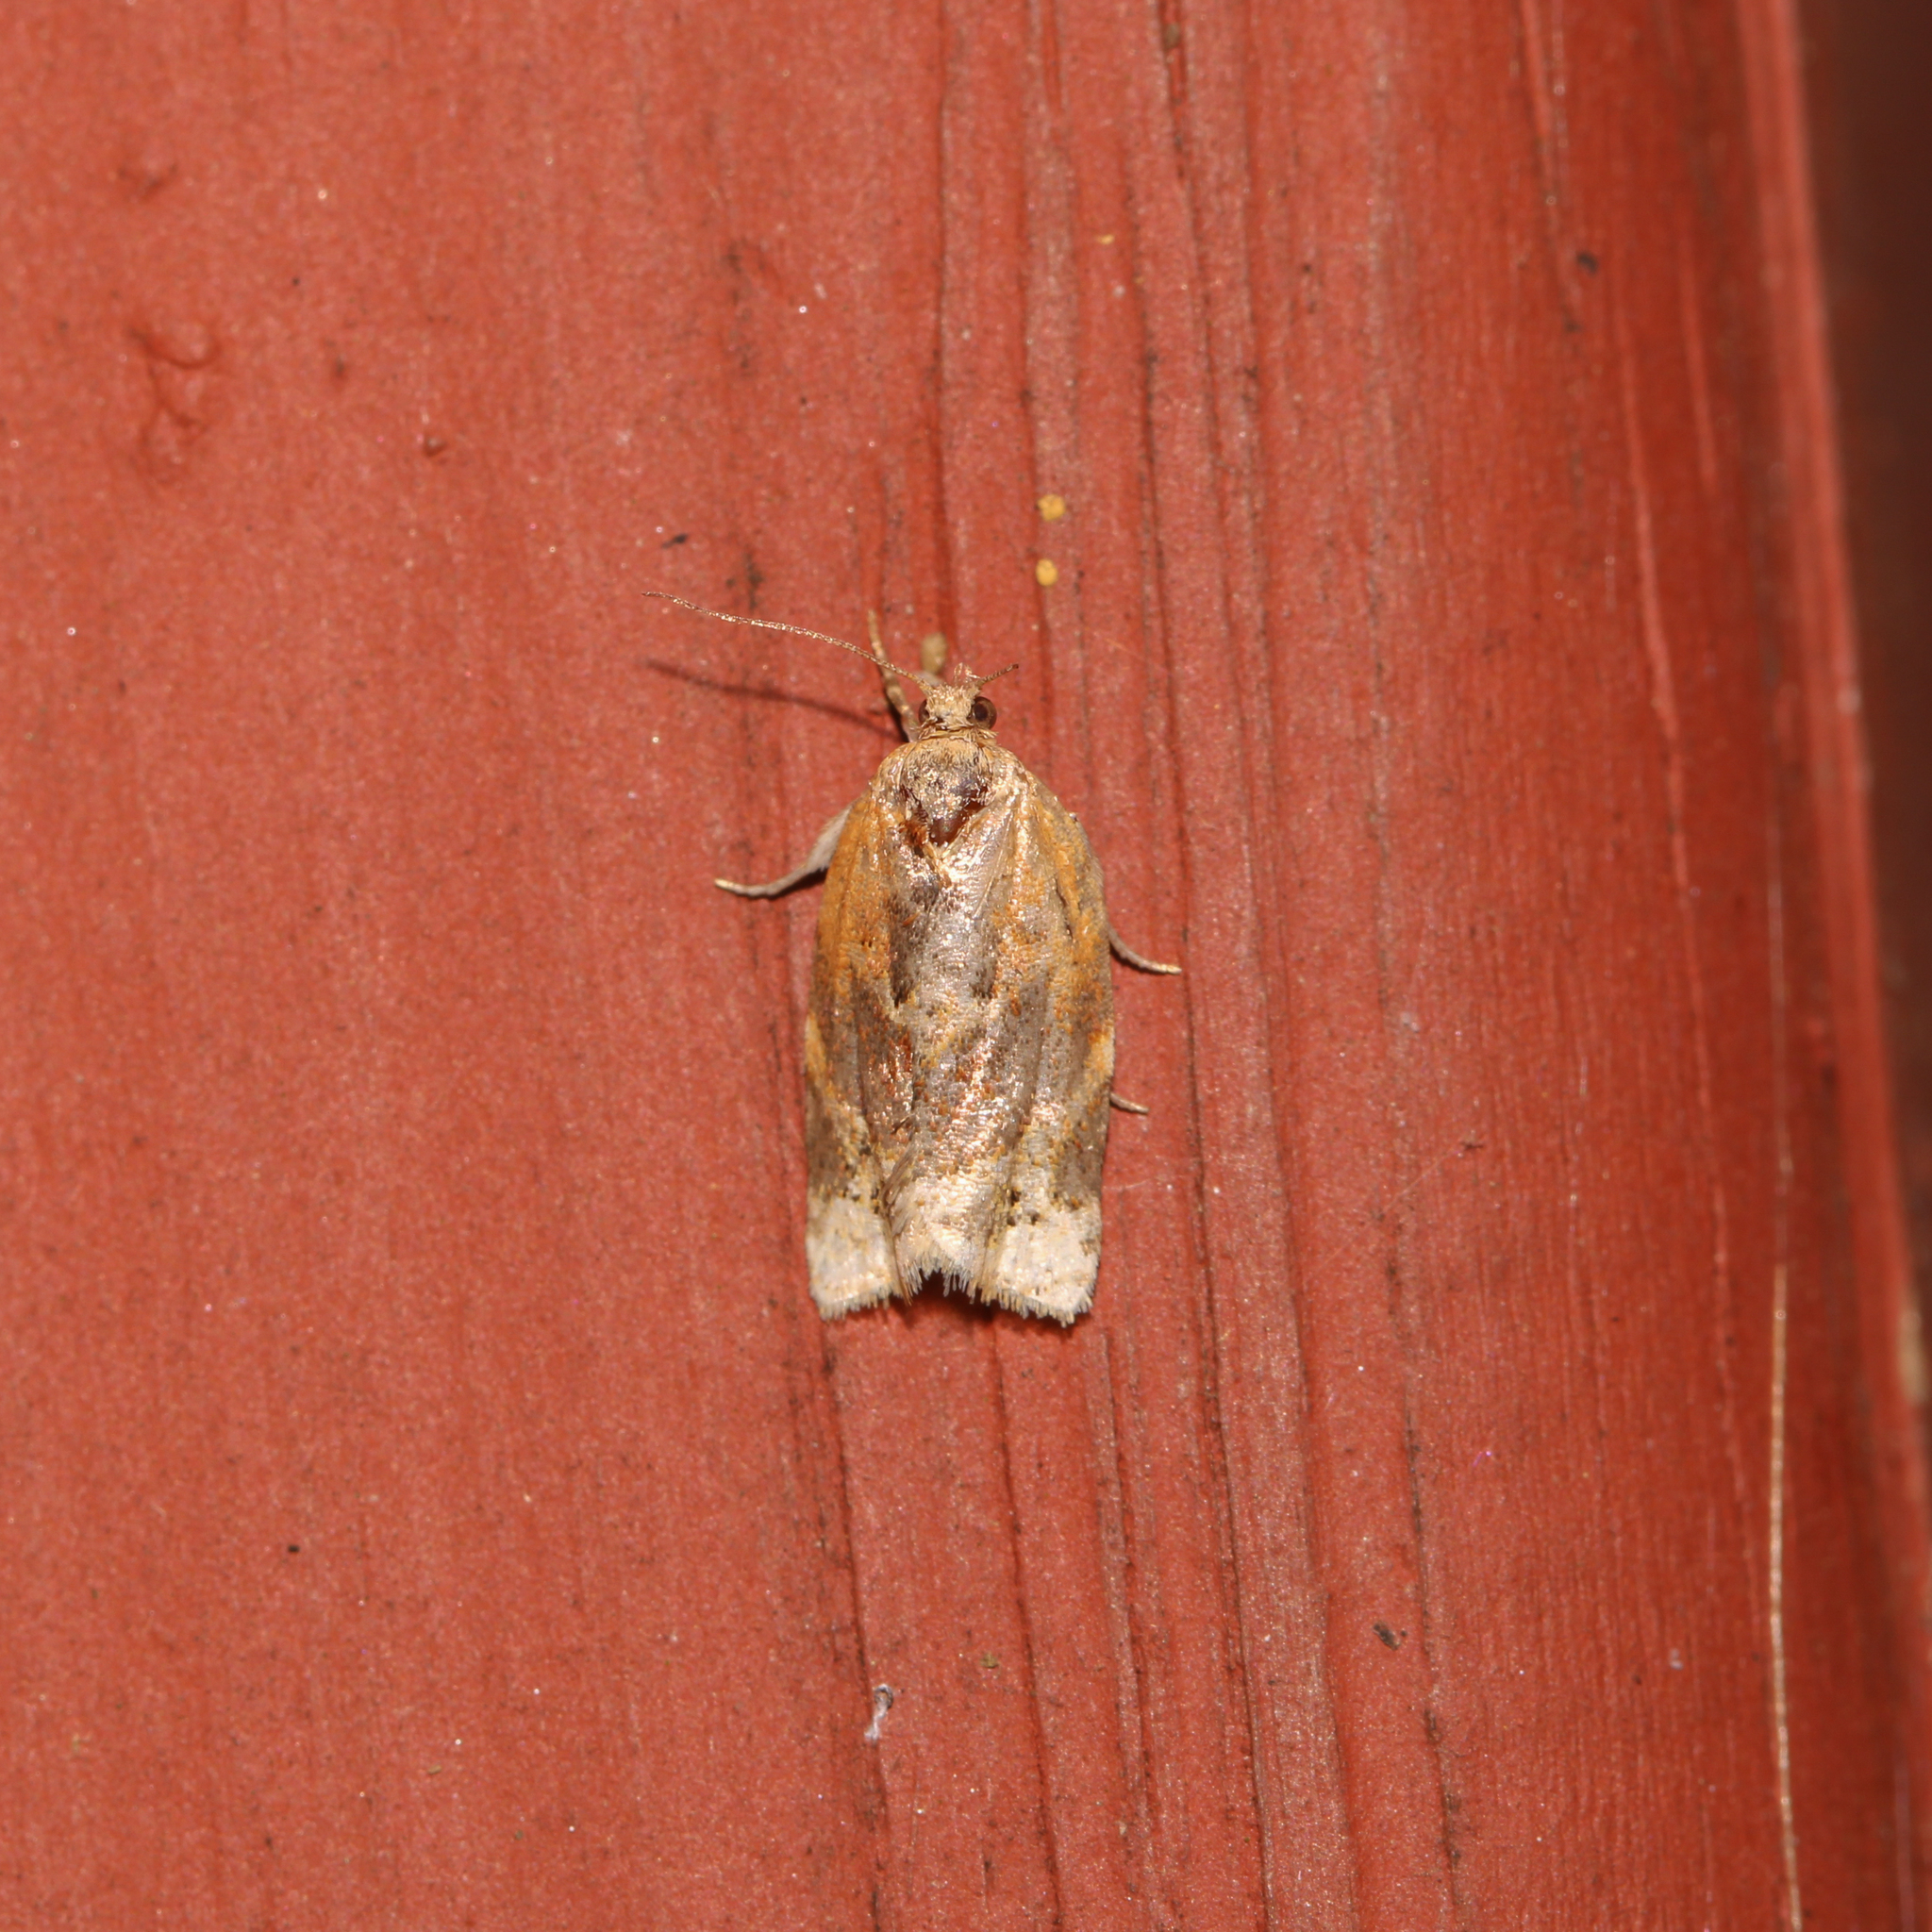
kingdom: Animalia
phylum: Arthropoda
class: Insecta
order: Lepidoptera
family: Tortricidae
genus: Argyrotaenia
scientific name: Argyrotaenia velutinana
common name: Red-banded leafroller moth
